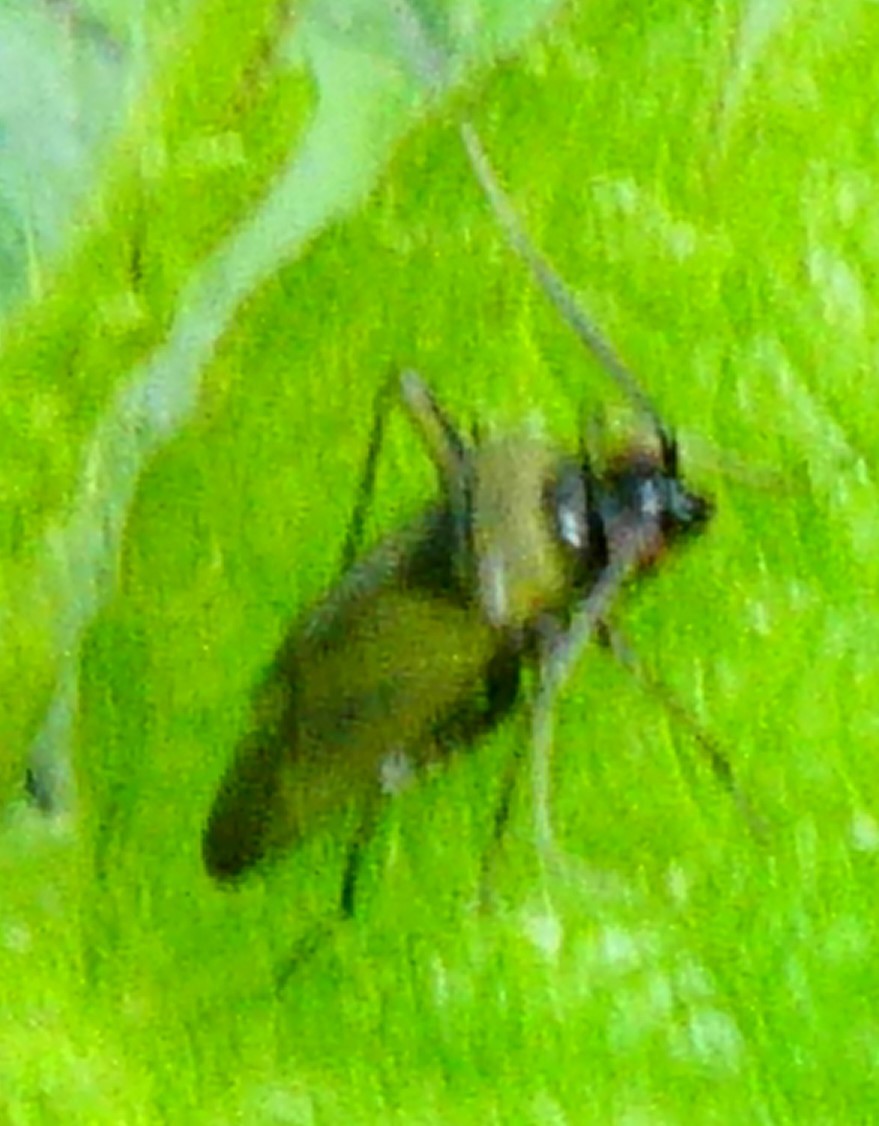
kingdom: Animalia
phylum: Arthropoda
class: Insecta
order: Hemiptera
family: Miridae
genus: Plagiognathus
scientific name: Plagiognathus arbustorum
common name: Plant bug
